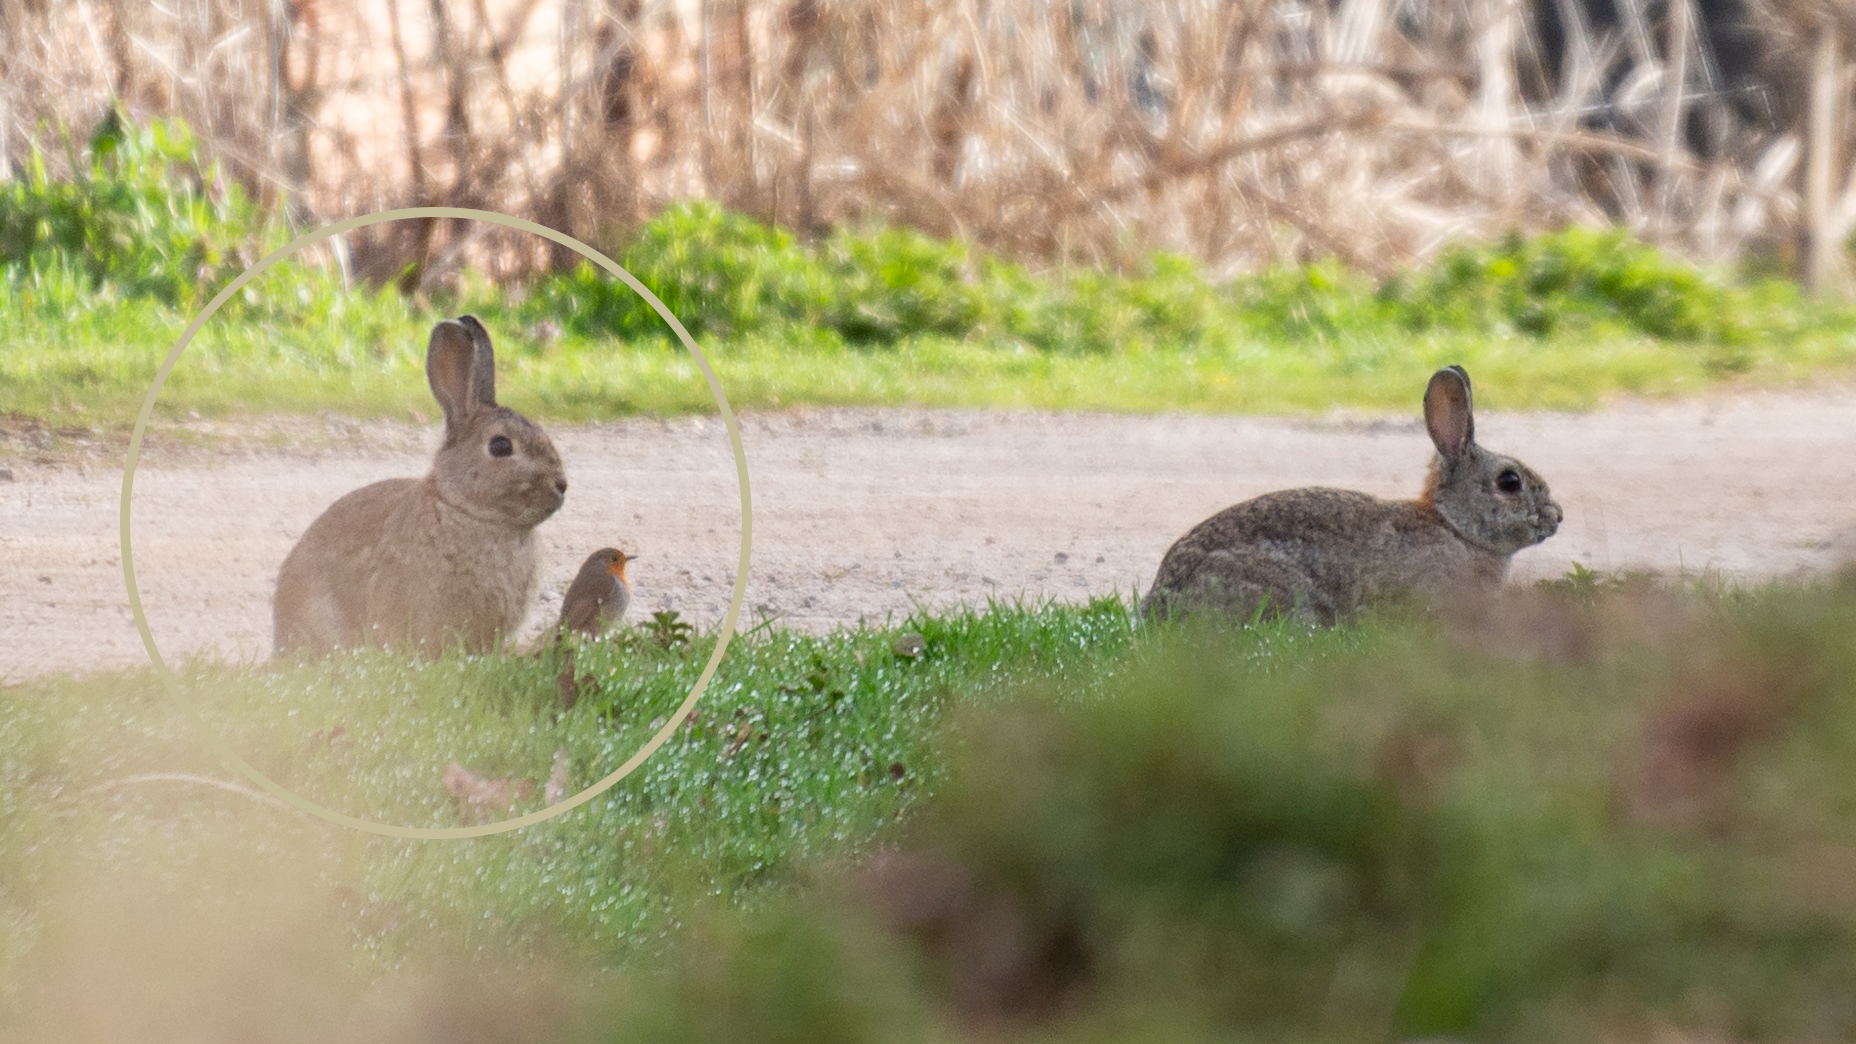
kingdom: Animalia
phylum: Chordata
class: Mammalia
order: Lagomorpha
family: Leporidae
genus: Oryctolagus
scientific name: Oryctolagus cuniculus
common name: European rabbit
